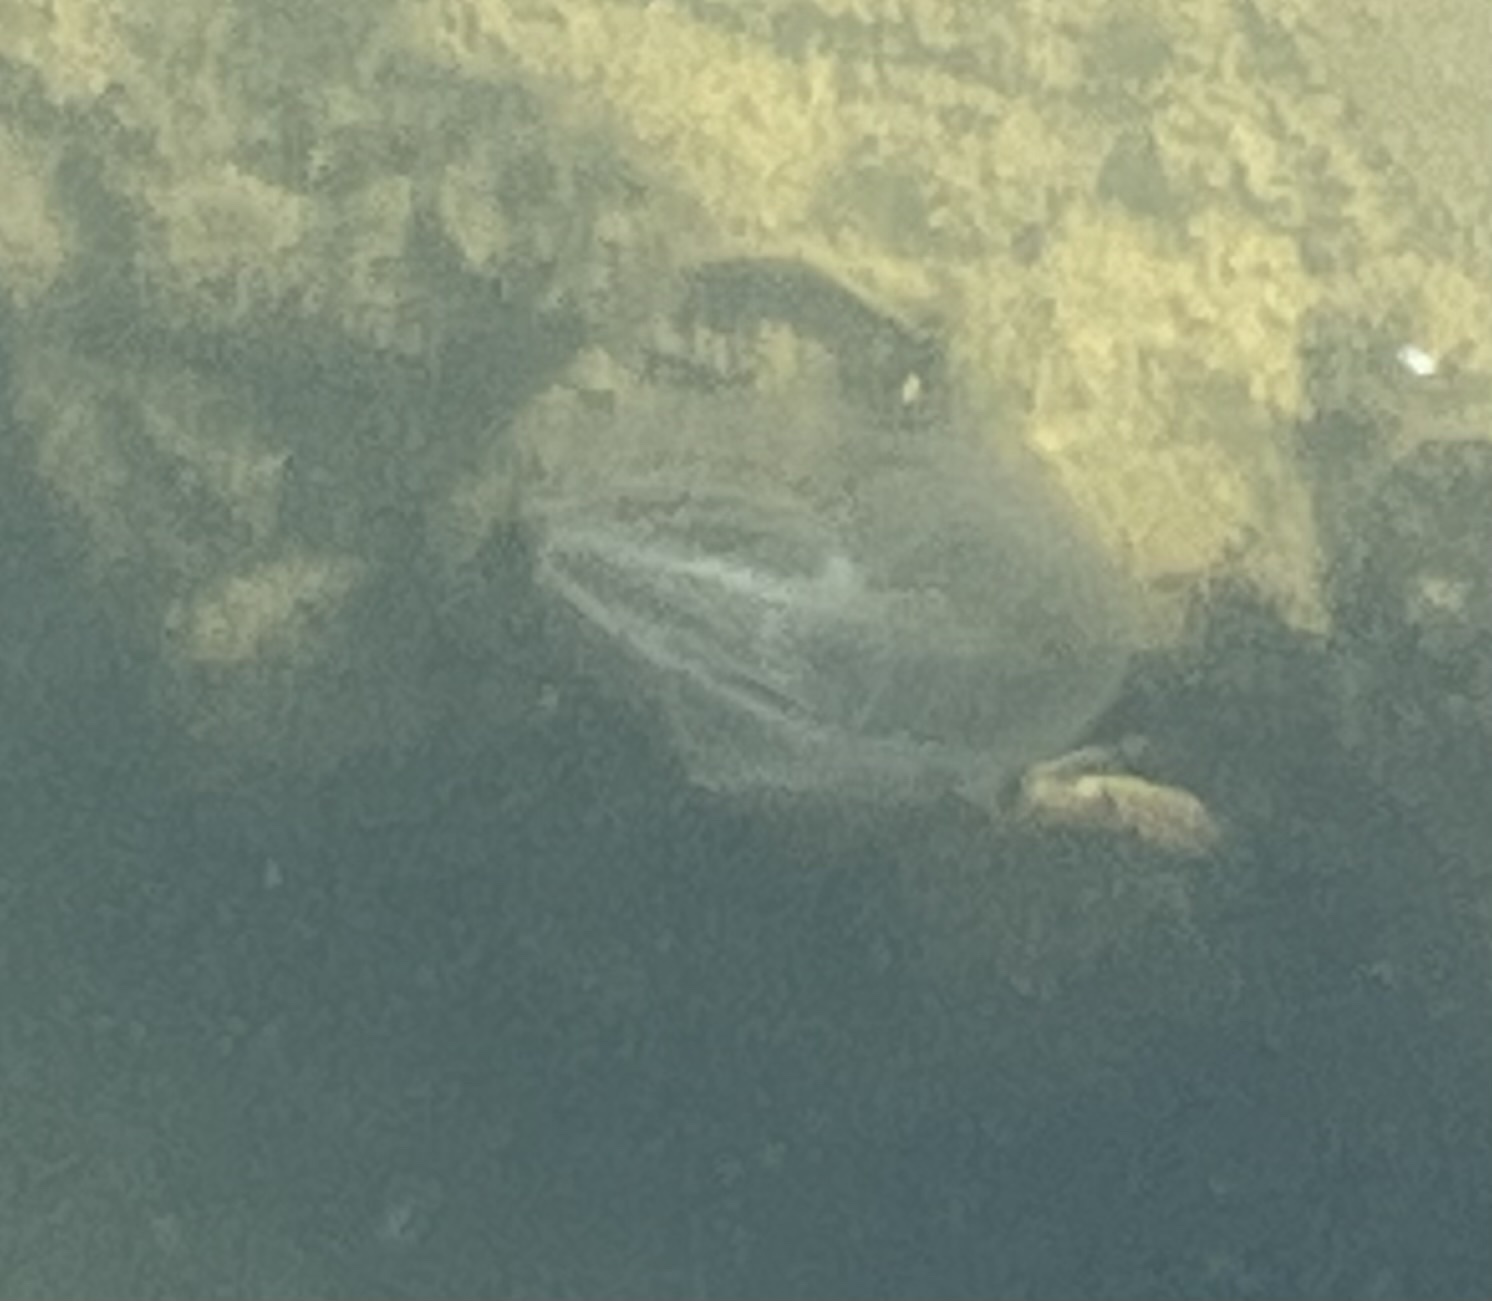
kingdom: Animalia
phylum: Ctenophora
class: Tentaculata
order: Lobata
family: Bolinopsidae
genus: Mnemiopsis
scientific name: Mnemiopsis leidyi
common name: American comb jelly
